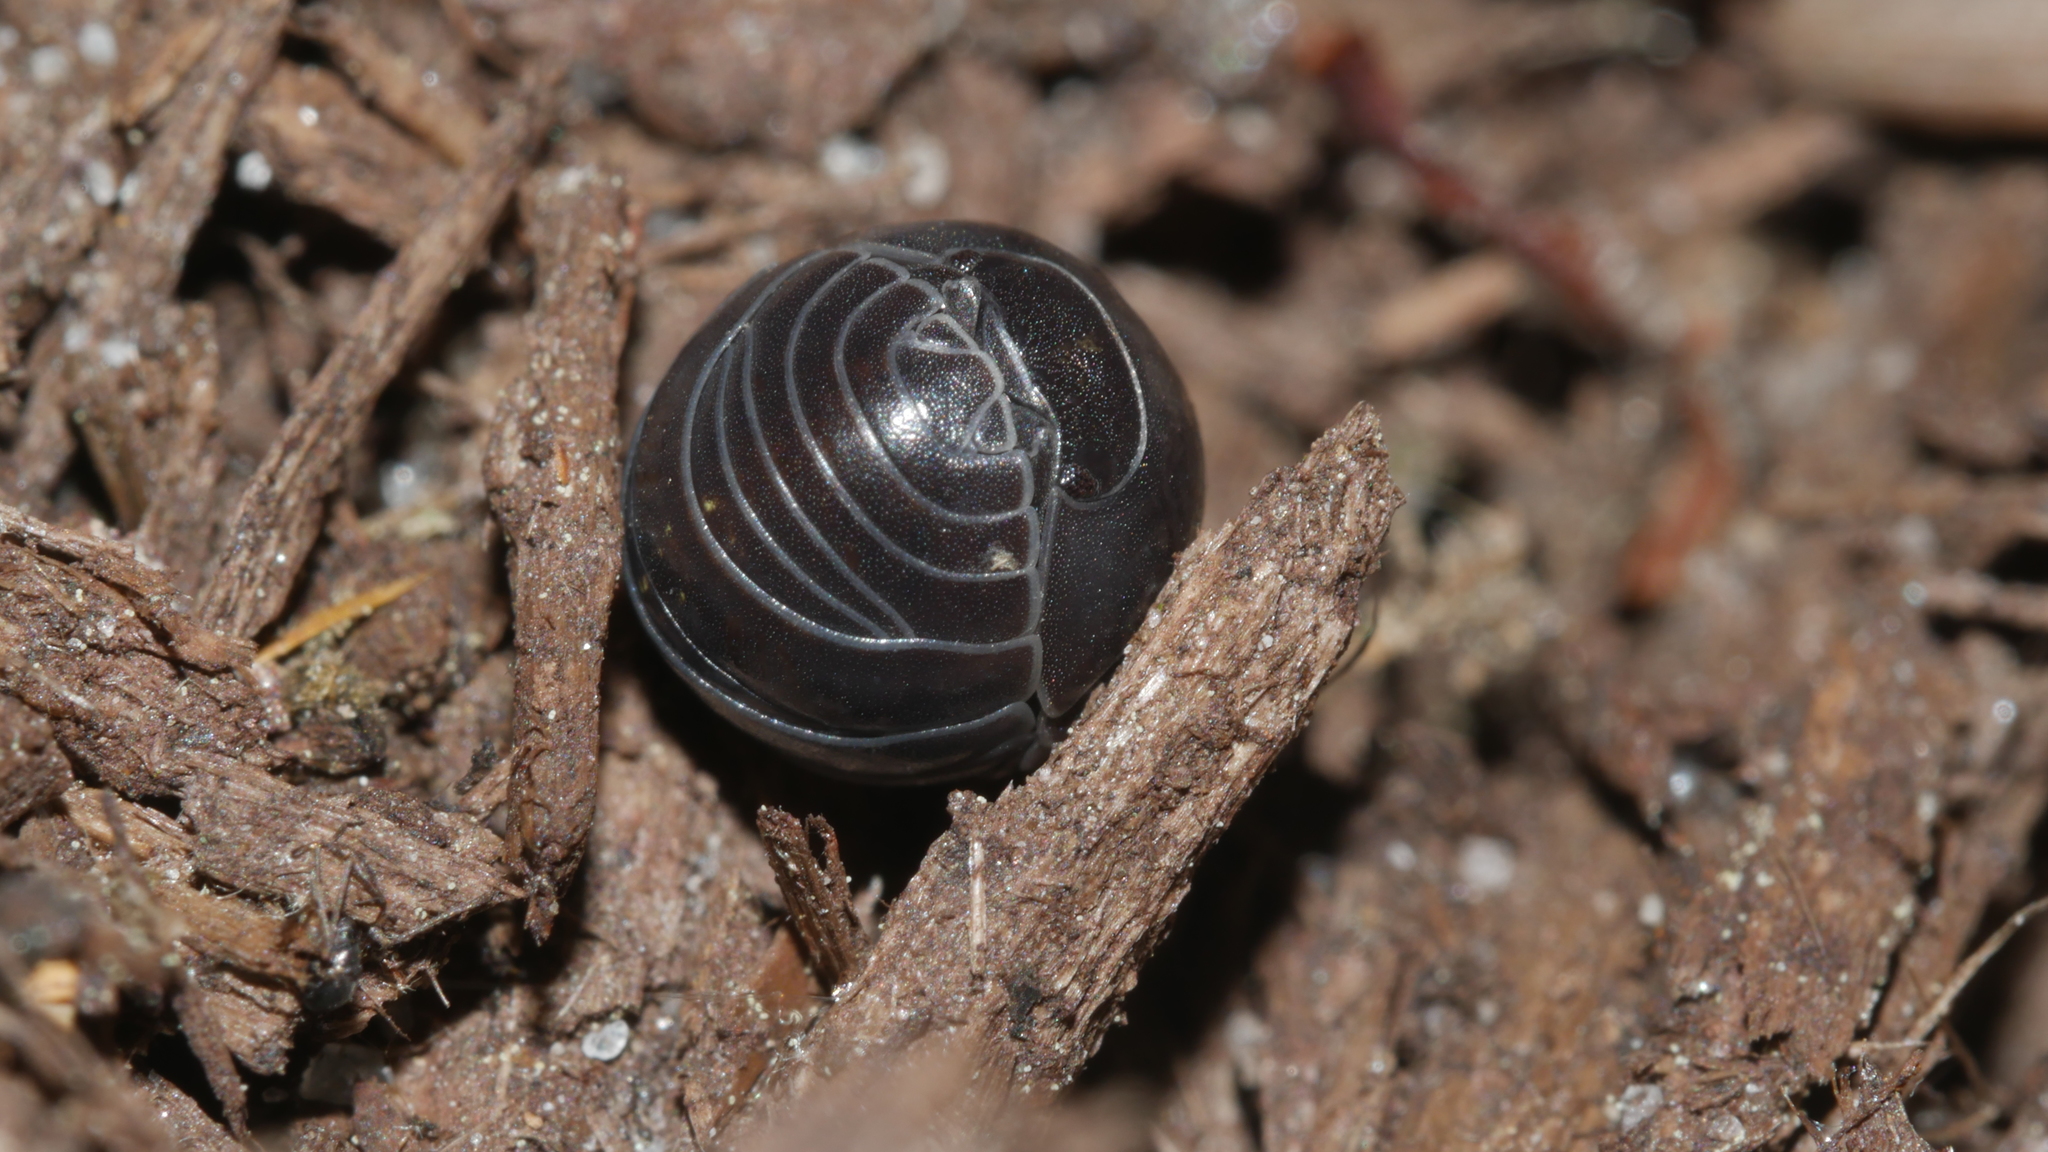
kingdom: Animalia
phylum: Arthropoda
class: Malacostraca
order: Isopoda
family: Armadillidiidae
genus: Armadillidium
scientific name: Armadillidium vulgare
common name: Common pill woodlouse
